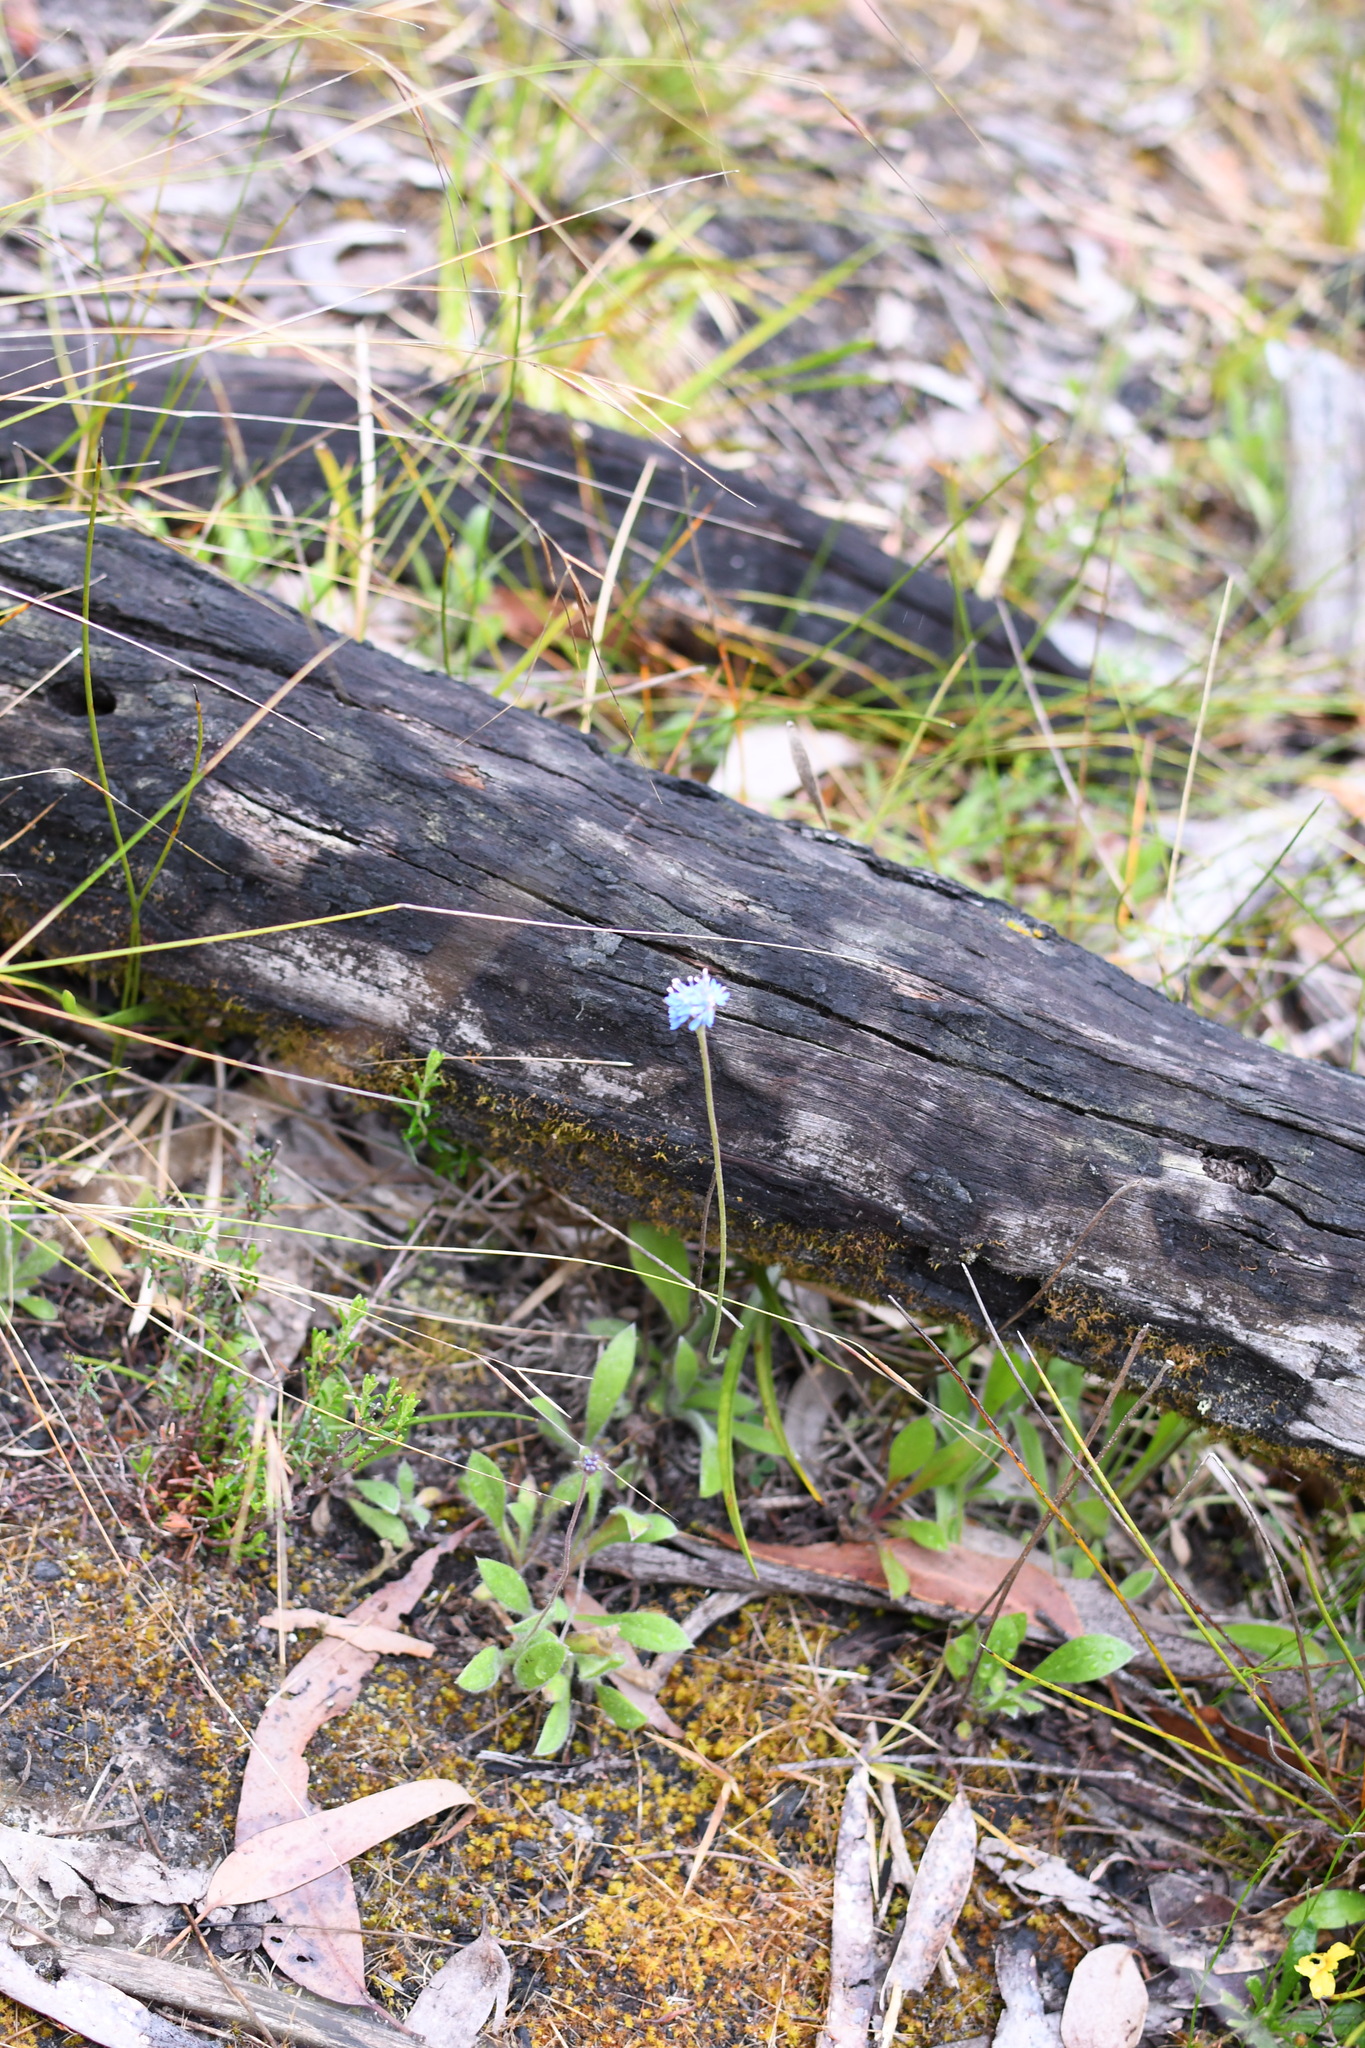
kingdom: Plantae
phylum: Tracheophyta
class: Magnoliopsida
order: Asterales
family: Goodeniaceae
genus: Brunonia
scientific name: Brunonia australis
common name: Blue pincushion
